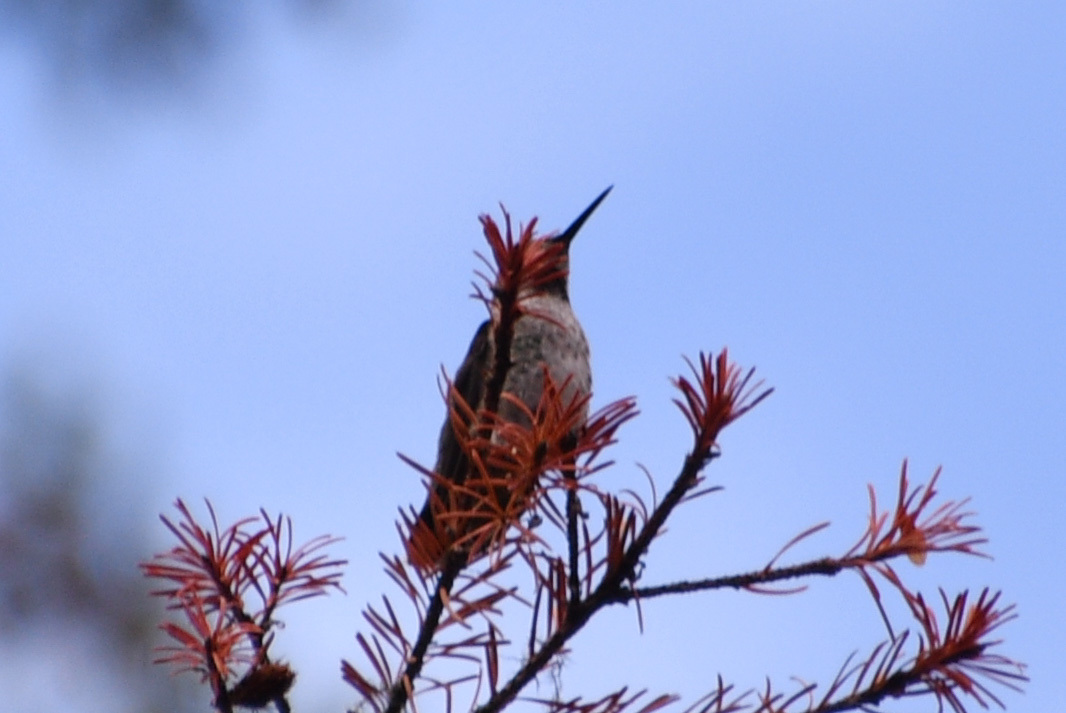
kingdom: Animalia
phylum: Chordata
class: Aves
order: Apodiformes
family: Trochilidae
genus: Calypte
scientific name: Calypte anna
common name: Anna's hummingbird
